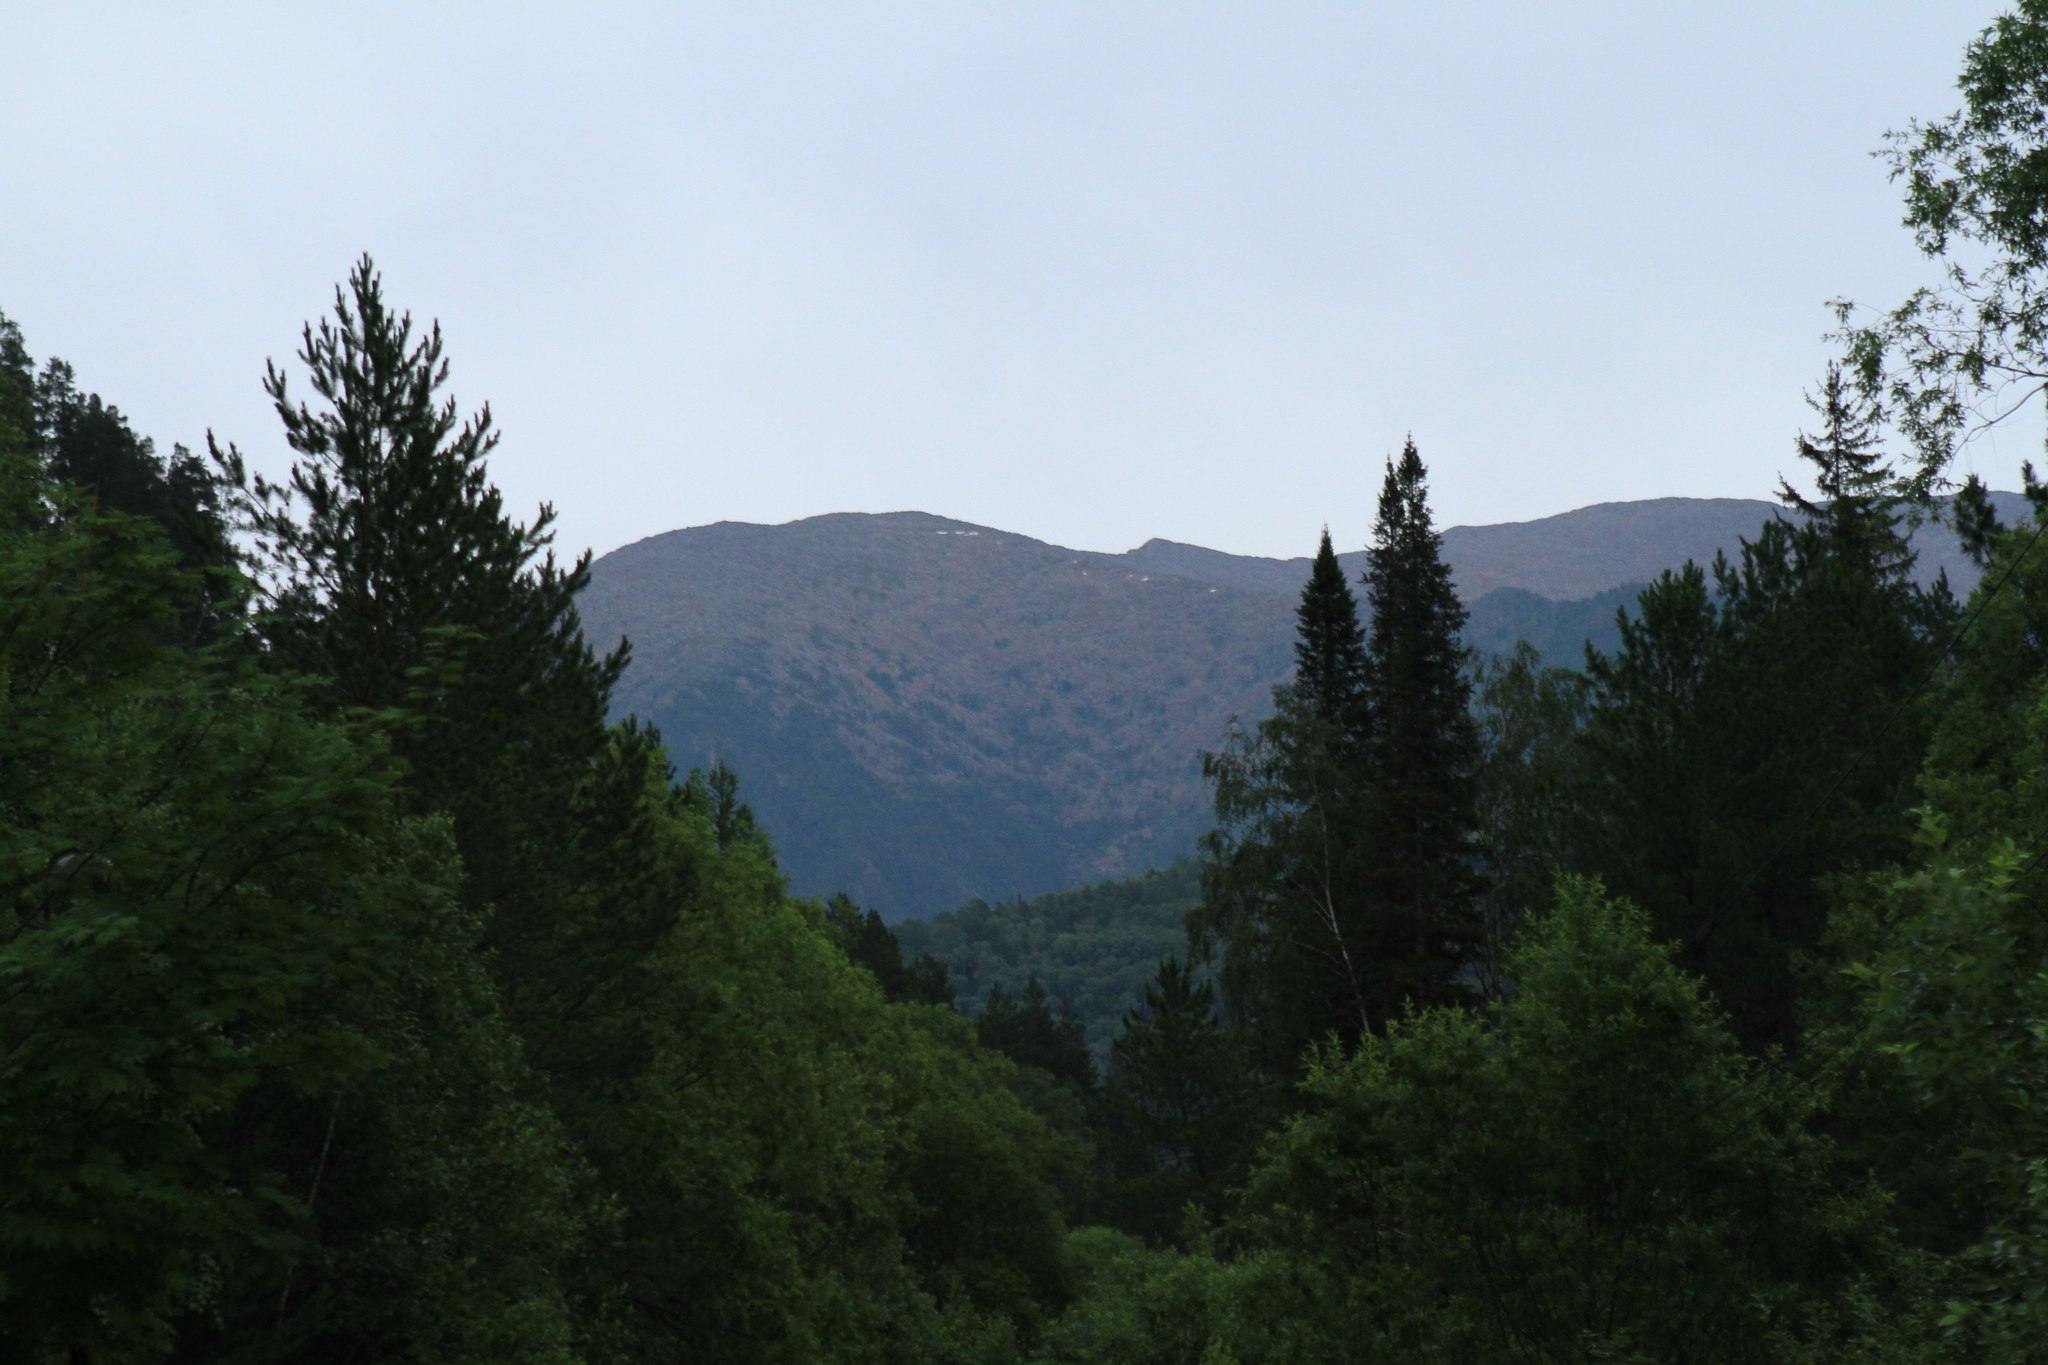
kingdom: Plantae
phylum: Tracheophyta
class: Pinopsida
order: Pinales
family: Pinaceae
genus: Pinus
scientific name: Pinus sylvestris
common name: Scots pine
